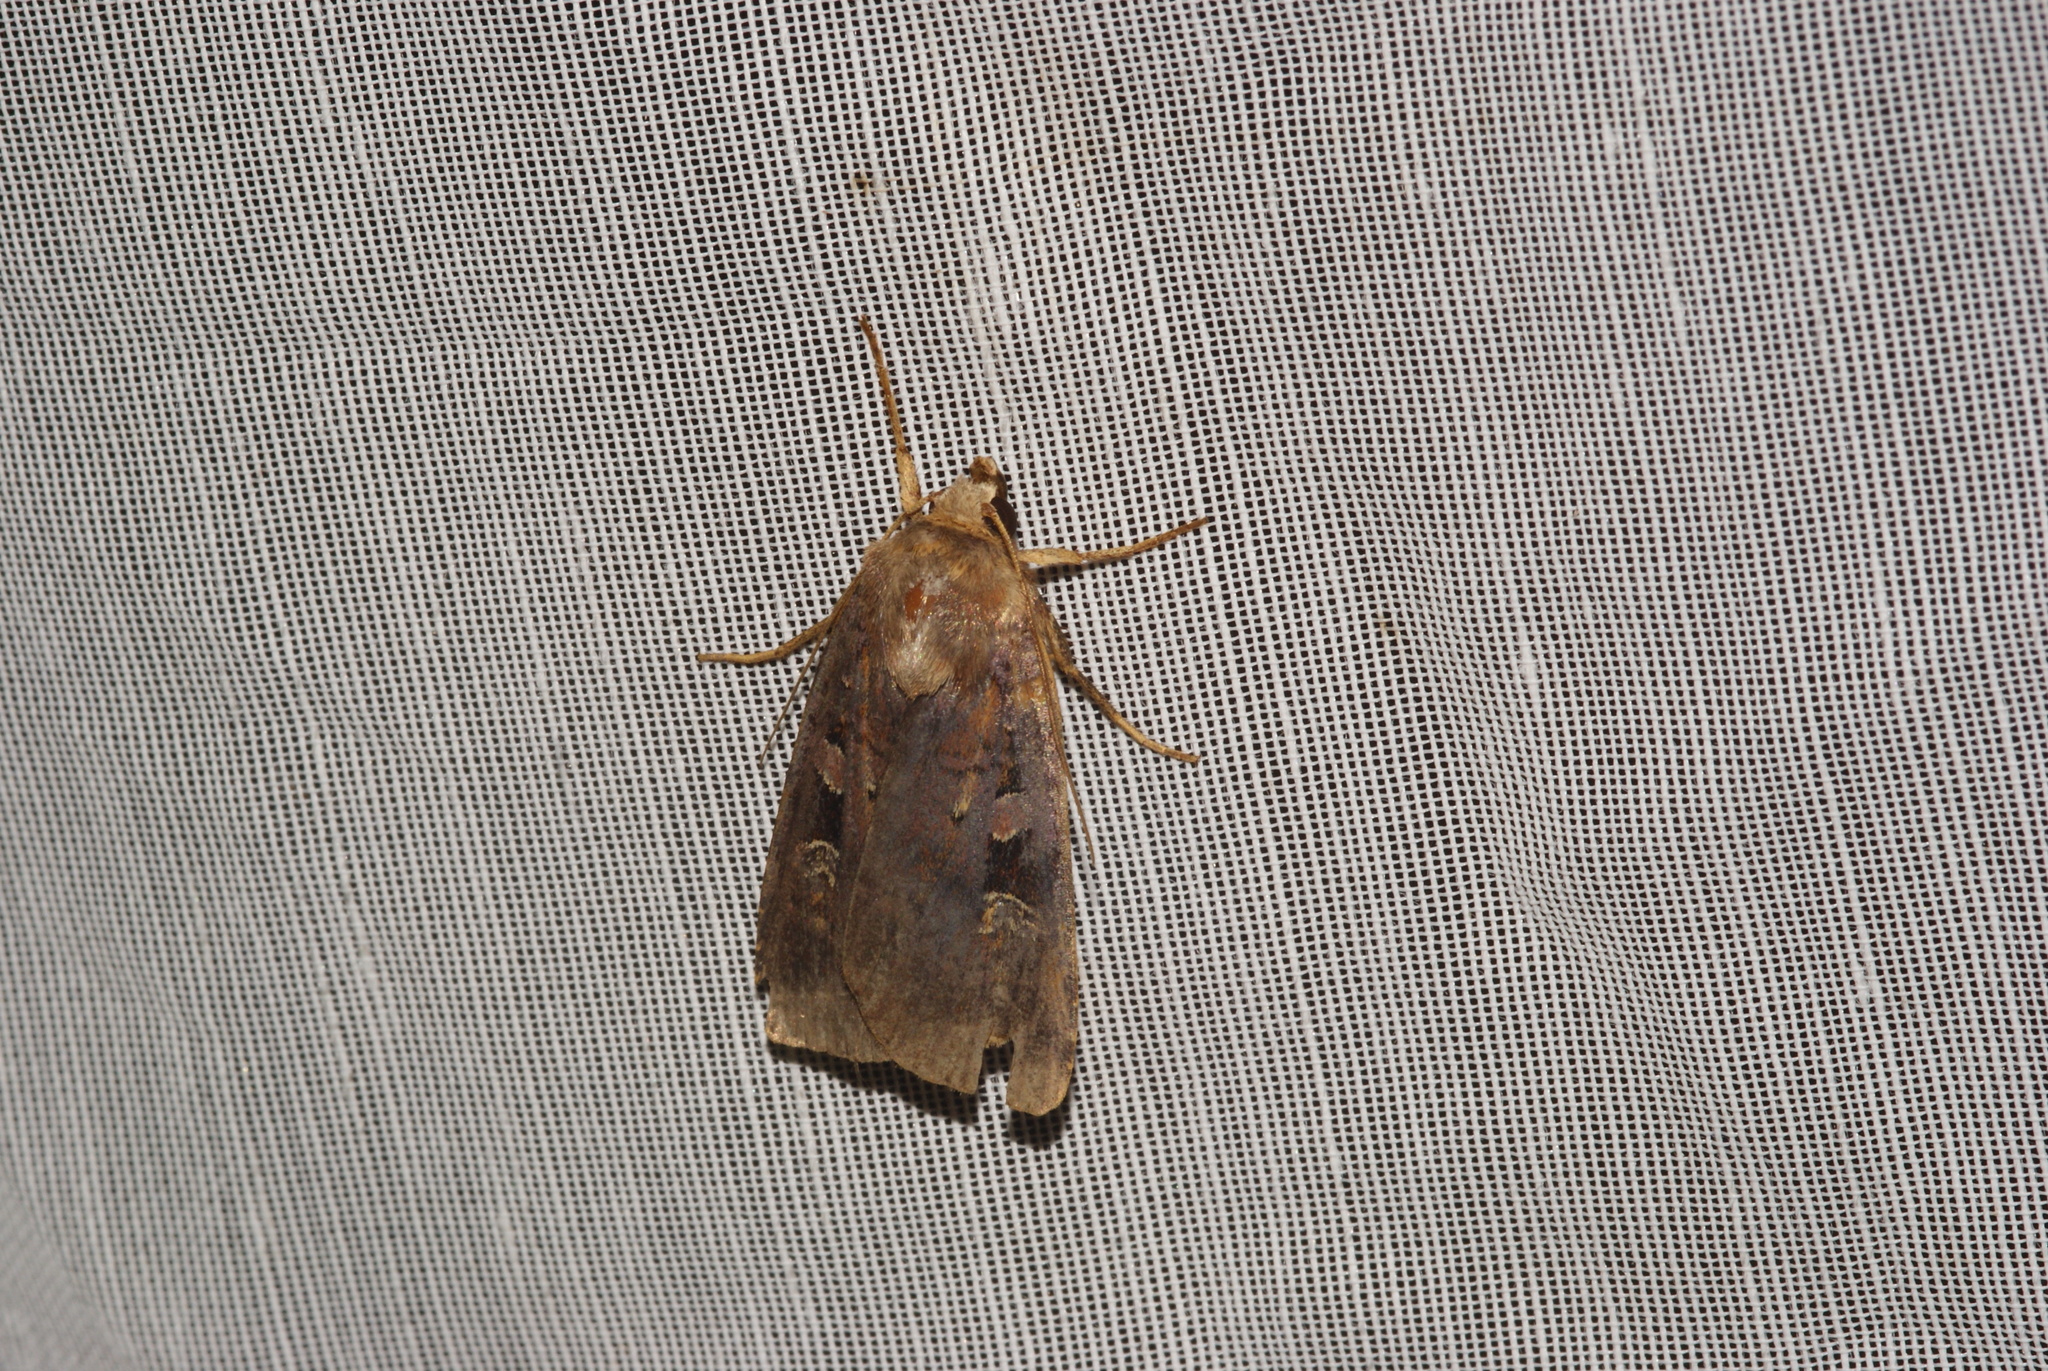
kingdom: Animalia
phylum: Arthropoda
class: Insecta
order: Lepidoptera
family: Noctuidae
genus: Diarsia
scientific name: Diarsia brunnea
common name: Purple clay
